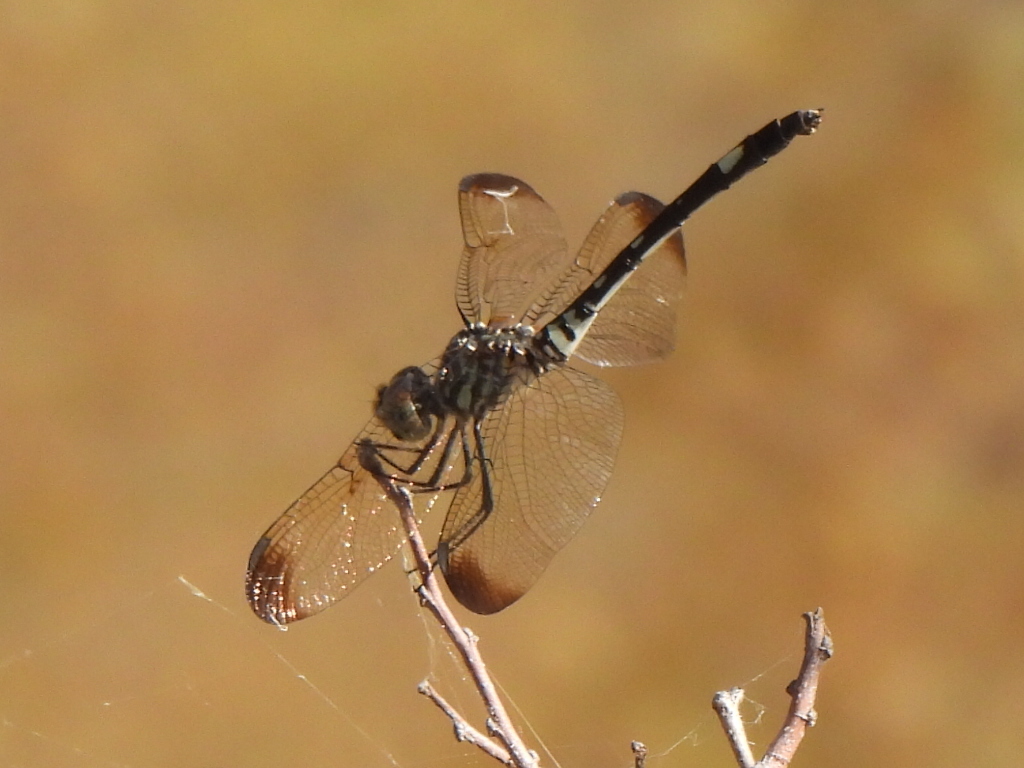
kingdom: Animalia
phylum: Arthropoda
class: Insecta
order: Odonata
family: Libellulidae
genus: Dythemis
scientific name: Dythemis velox
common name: Swift setwing
